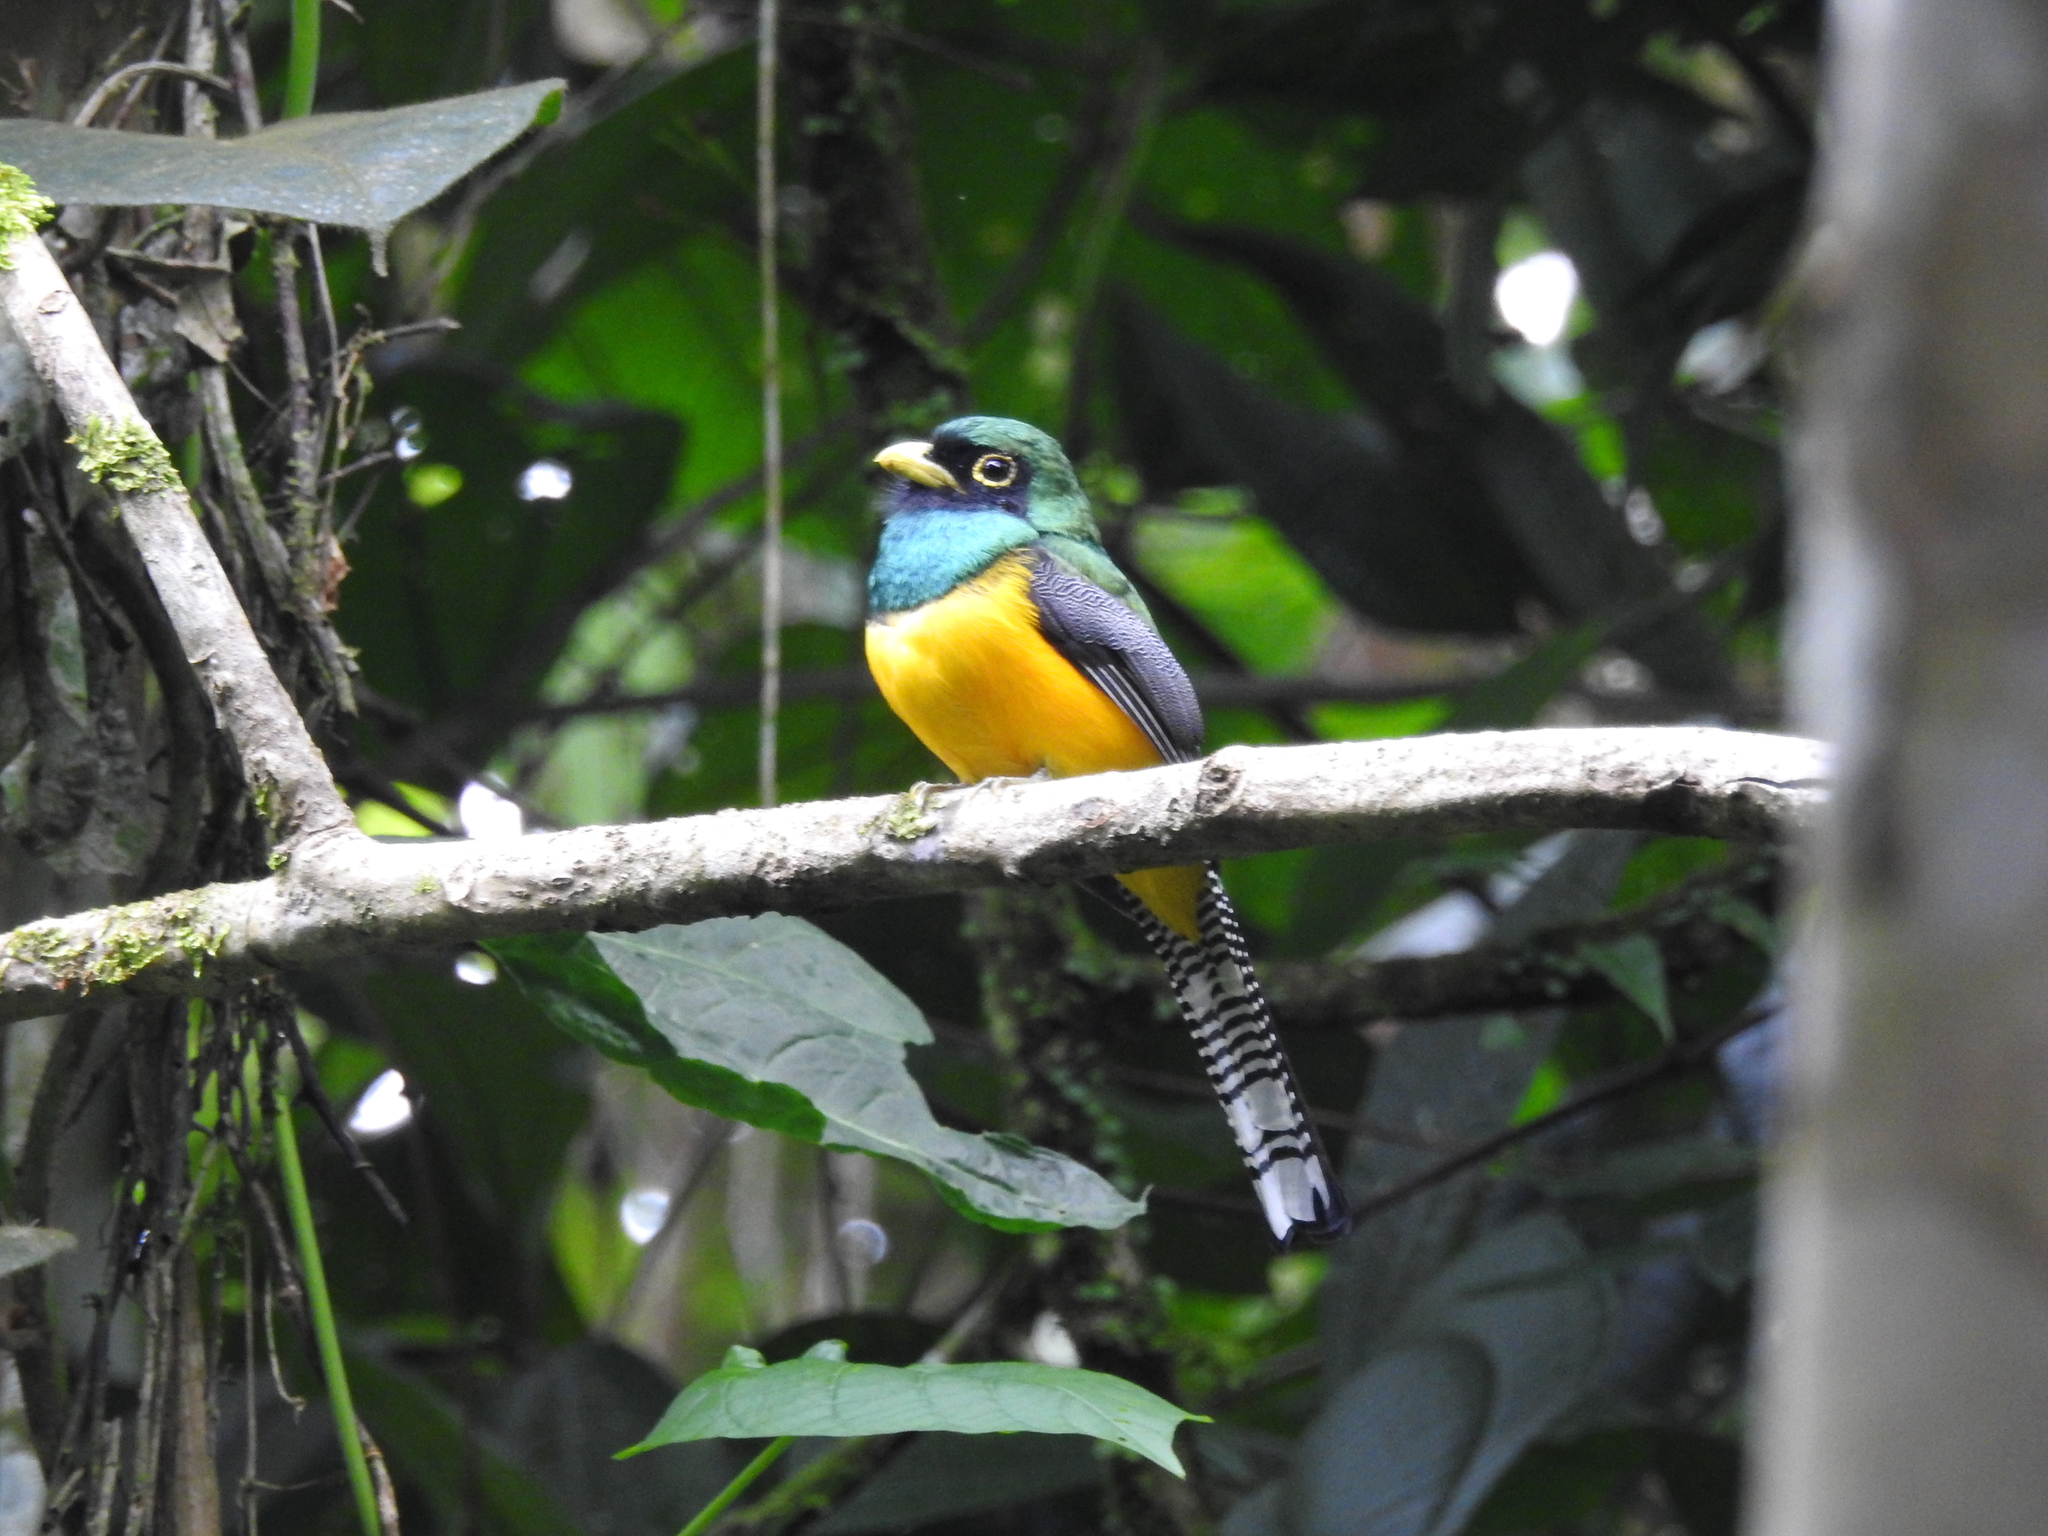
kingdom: Animalia
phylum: Chordata
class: Aves
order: Trogoniformes
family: Trogonidae
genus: Trogon
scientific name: Trogon rufus
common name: Black-throated trogon
